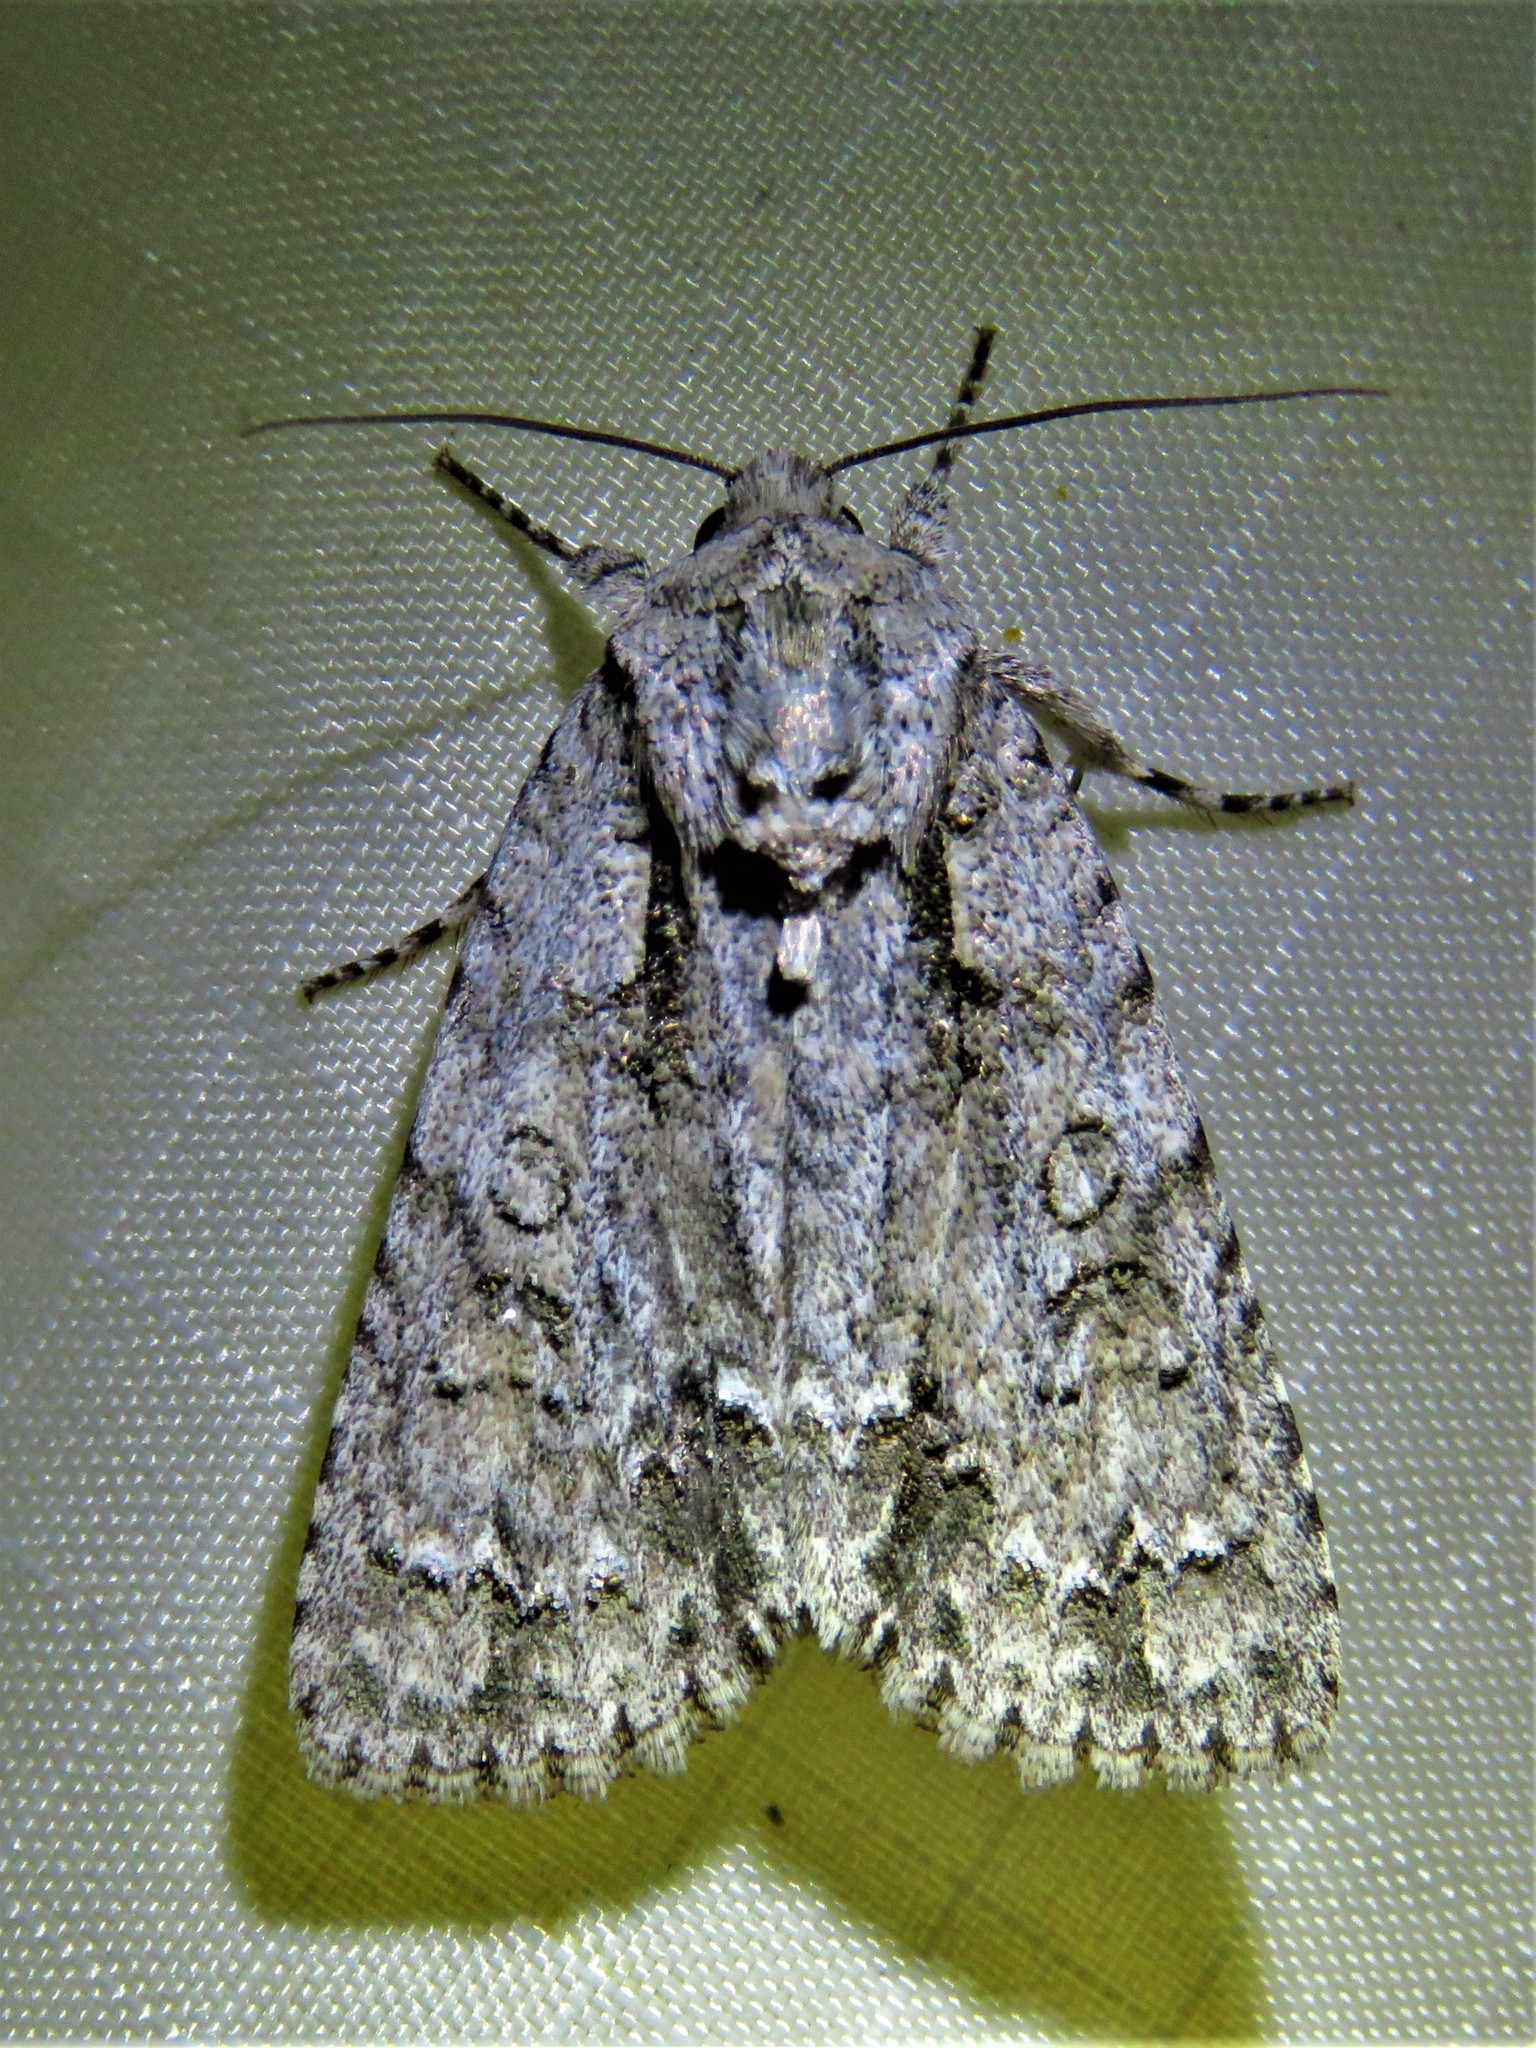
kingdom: Animalia
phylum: Arthropoda
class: Insecta
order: Lepidoptera
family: Noctuidae
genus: Acronicta
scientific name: Acronicta clarescens
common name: Clear dagger
